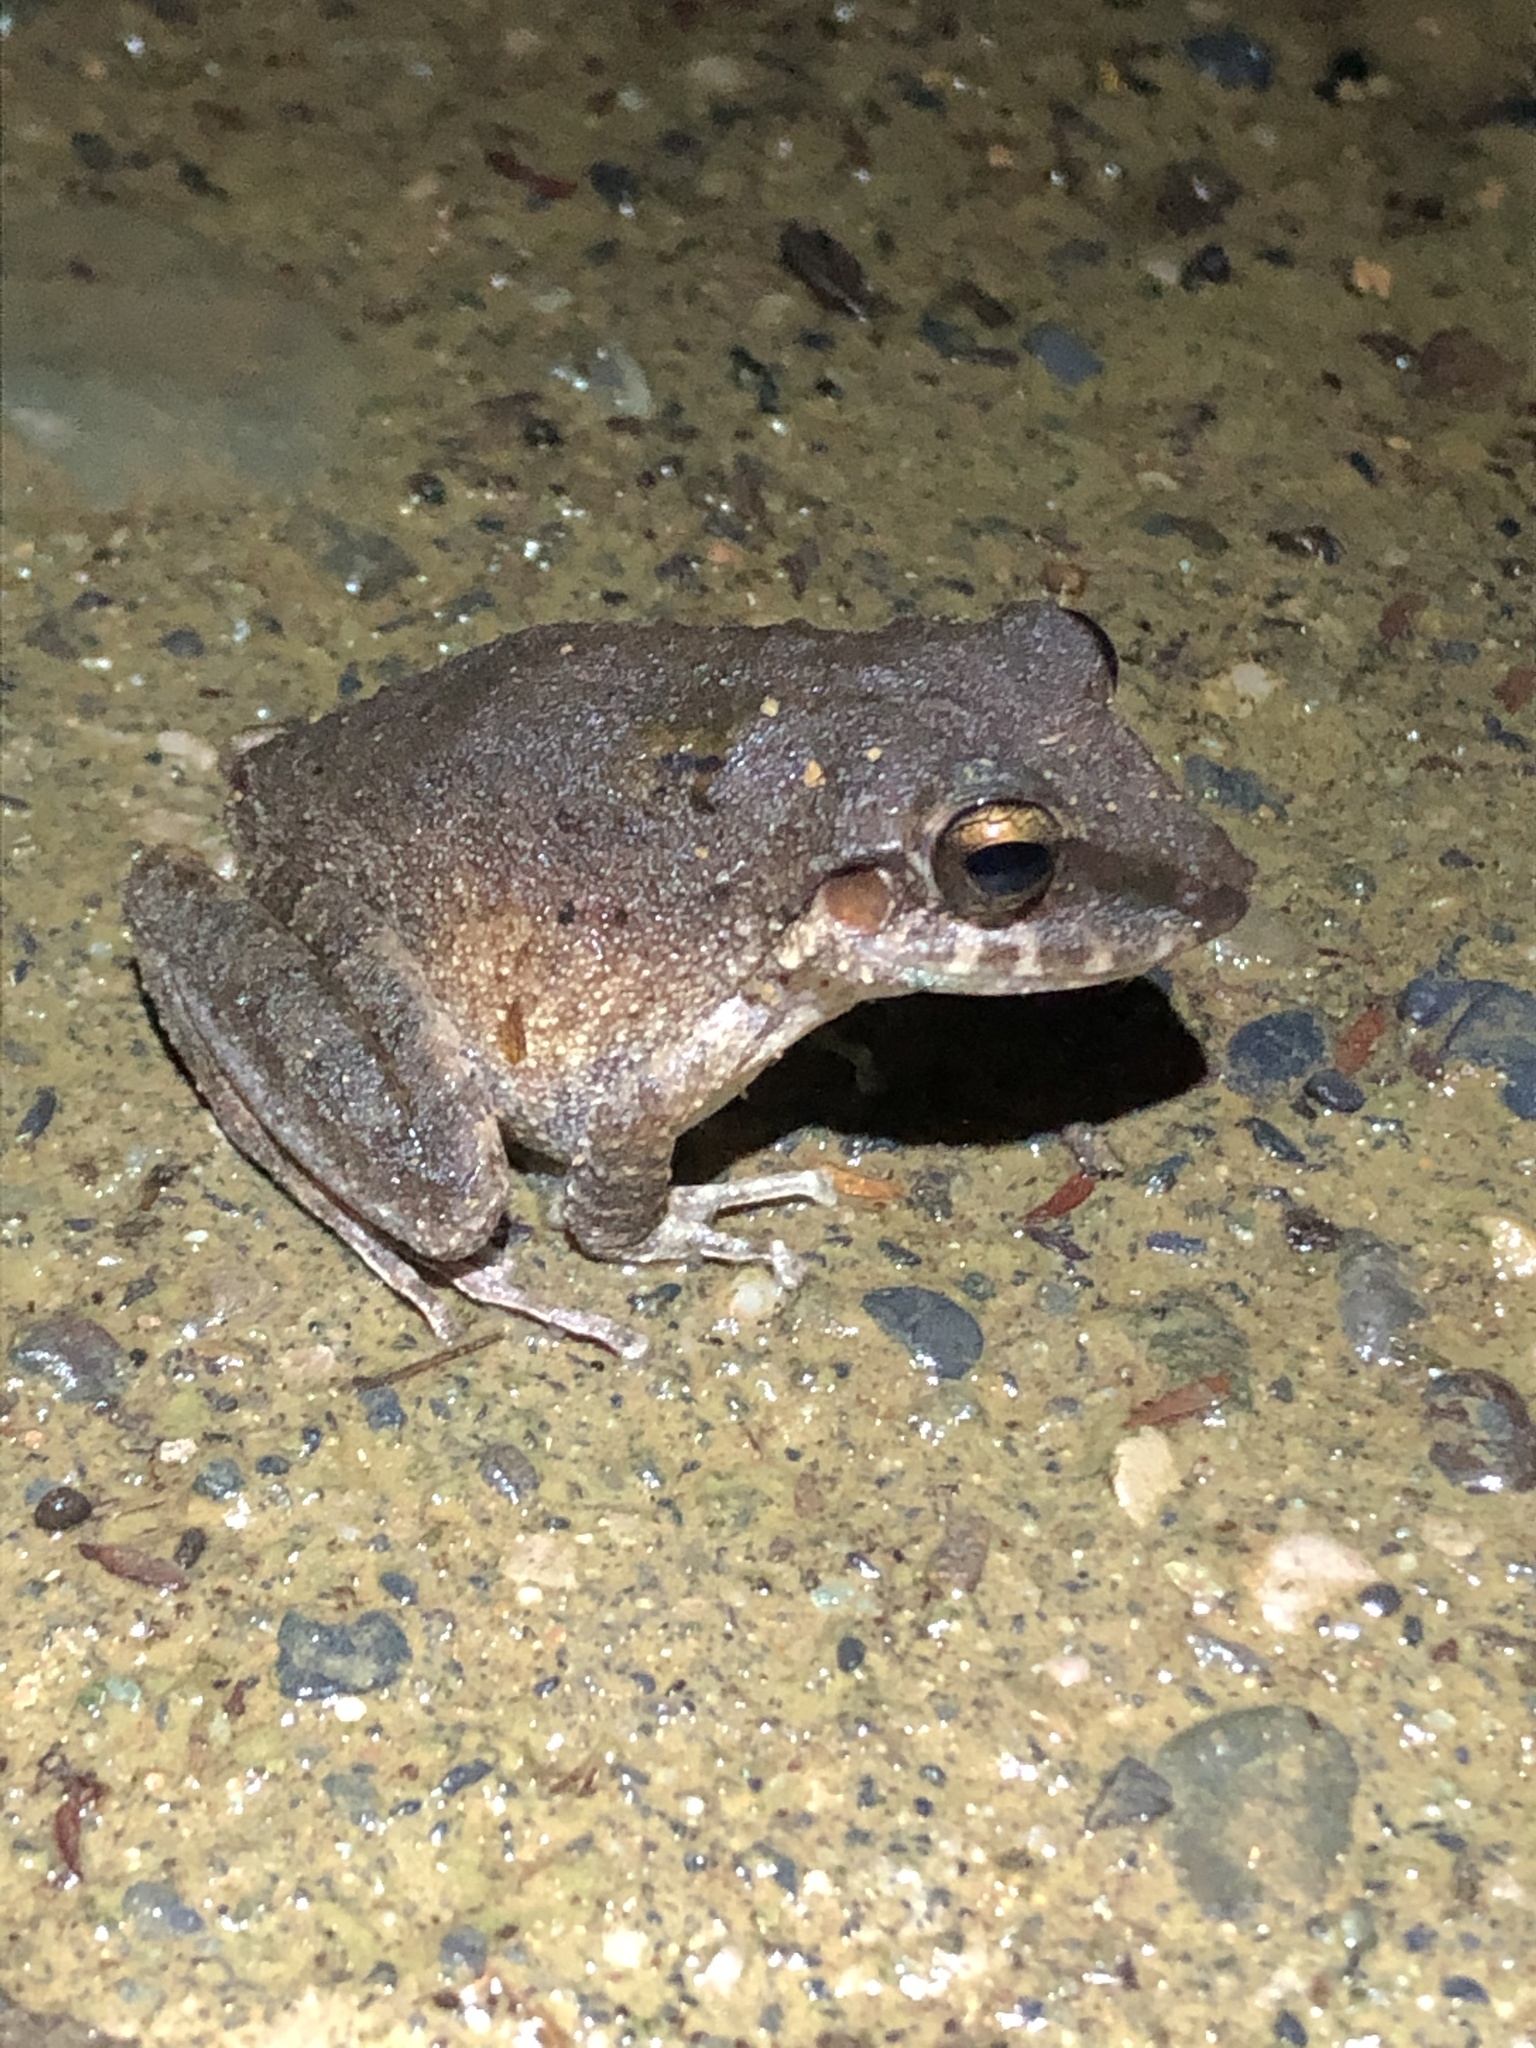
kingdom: Animalia
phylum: Chordata
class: Amphibia
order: Anura
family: Craugastoridae
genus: Pristimantis
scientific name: Pristimantis fenestratus
